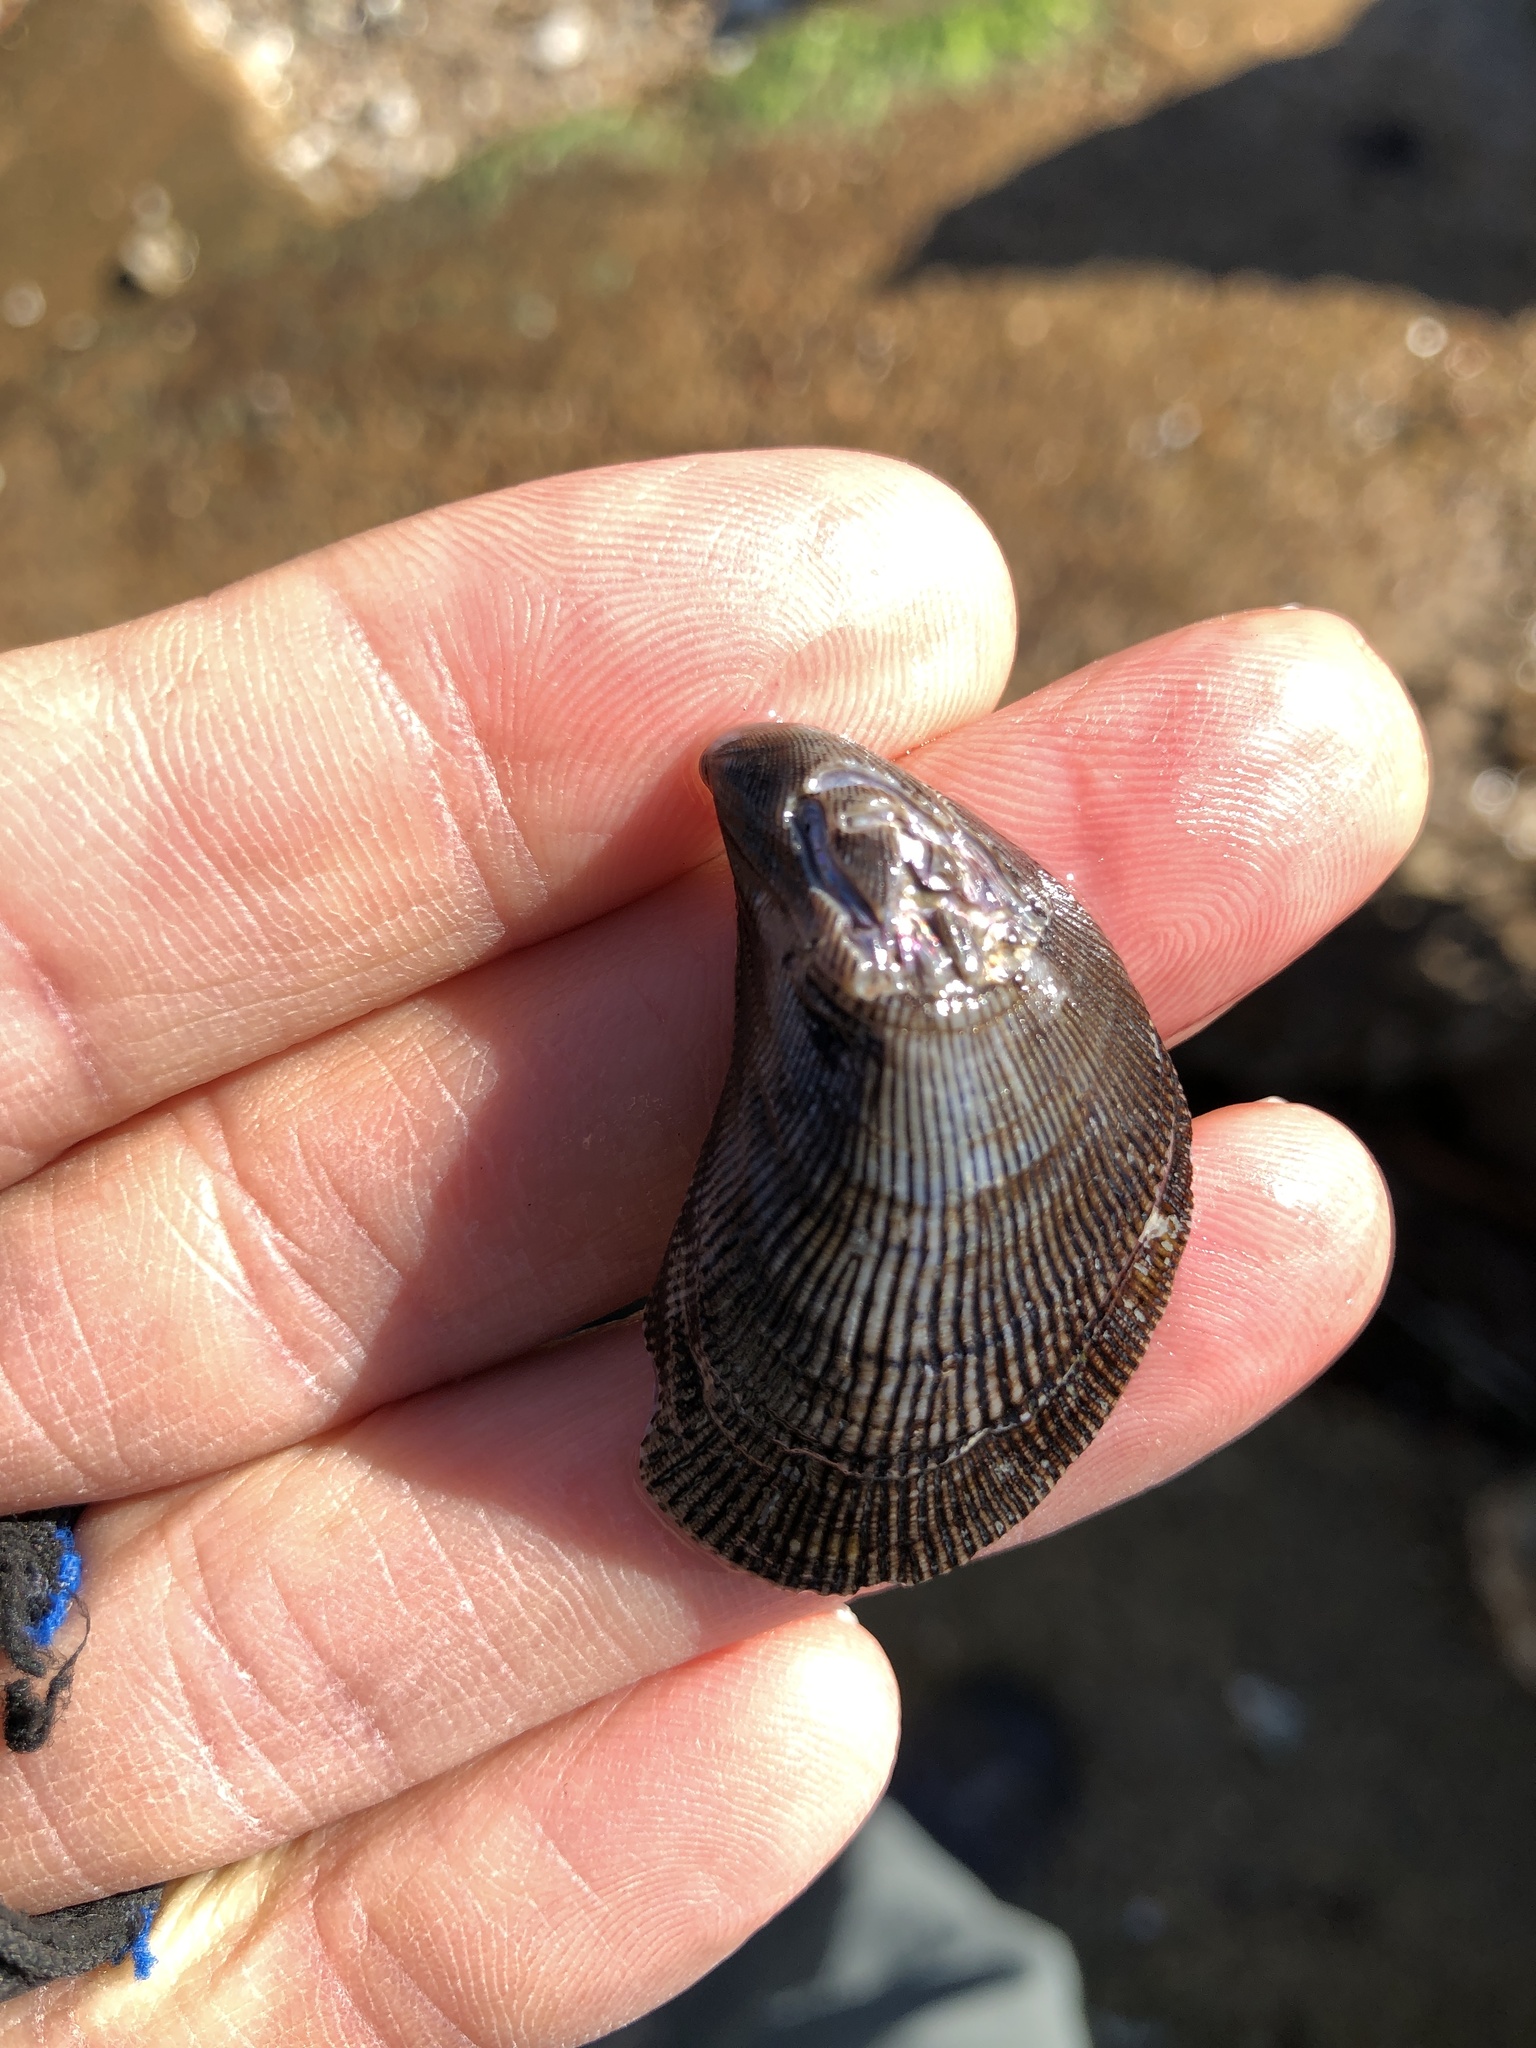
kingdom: Animalia
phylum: Mollusca
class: Bivalvia
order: Mytilida
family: Mytilidae
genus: Ischadium
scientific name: Ischadium recurvum
